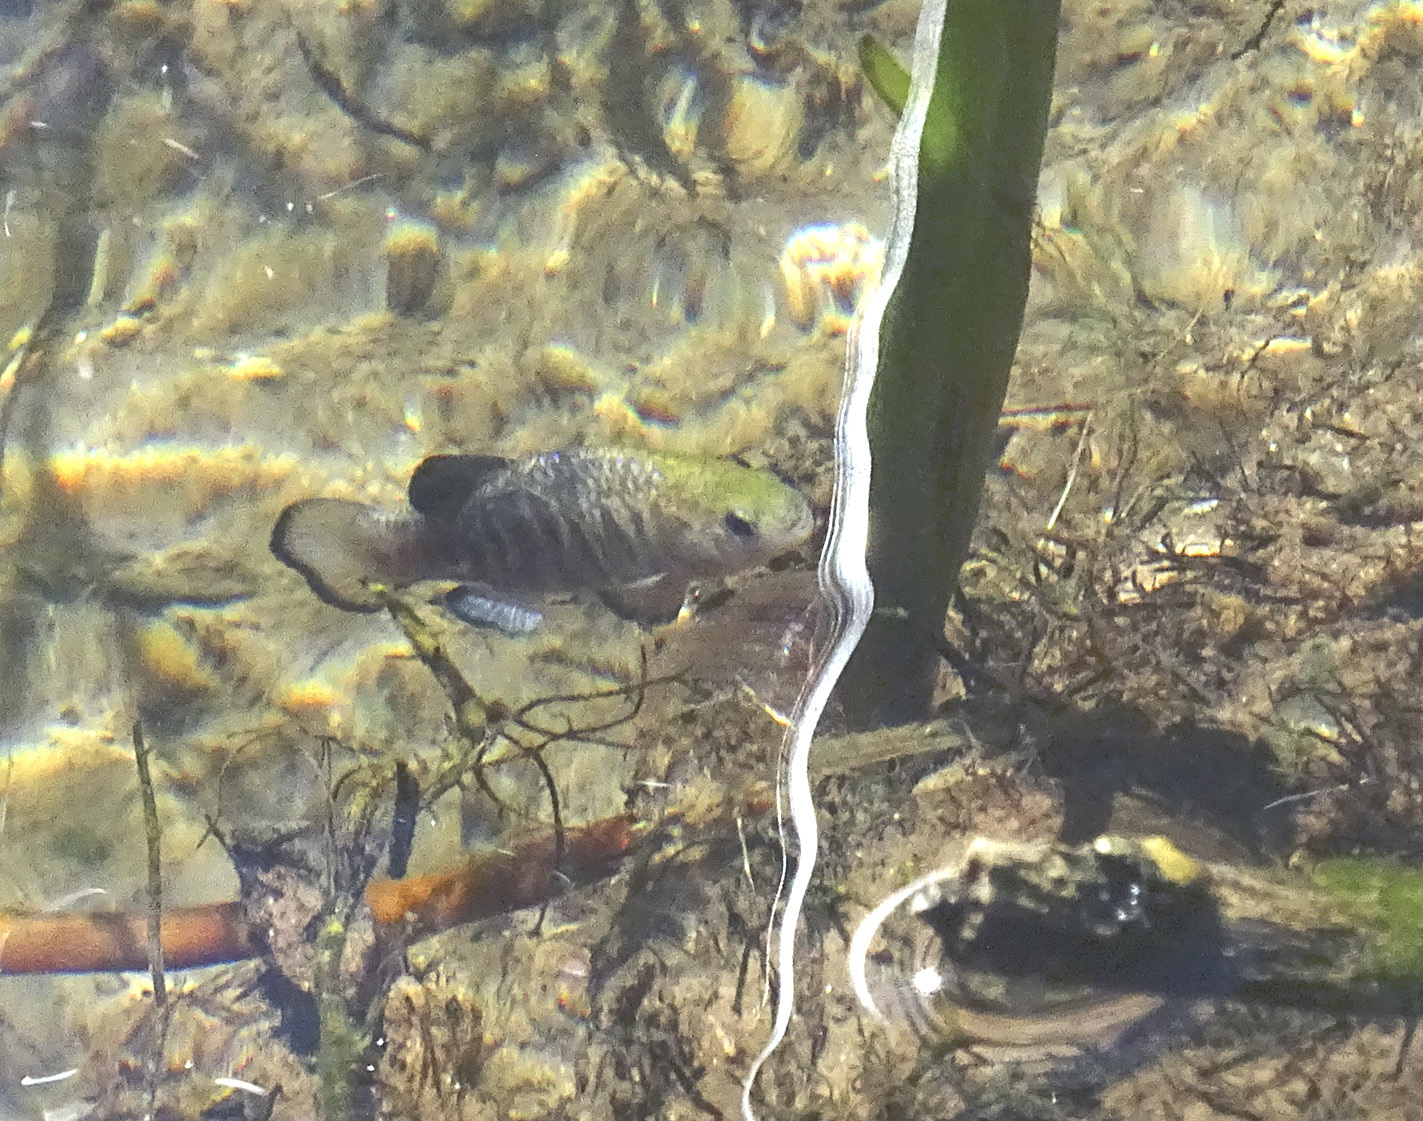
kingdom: Animalia
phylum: Chordata
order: Cyprinodontiformes
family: Cyprinodontidae
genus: Cyprinodon
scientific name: Cyprinodon nevadensis
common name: Amargosa pupfish
